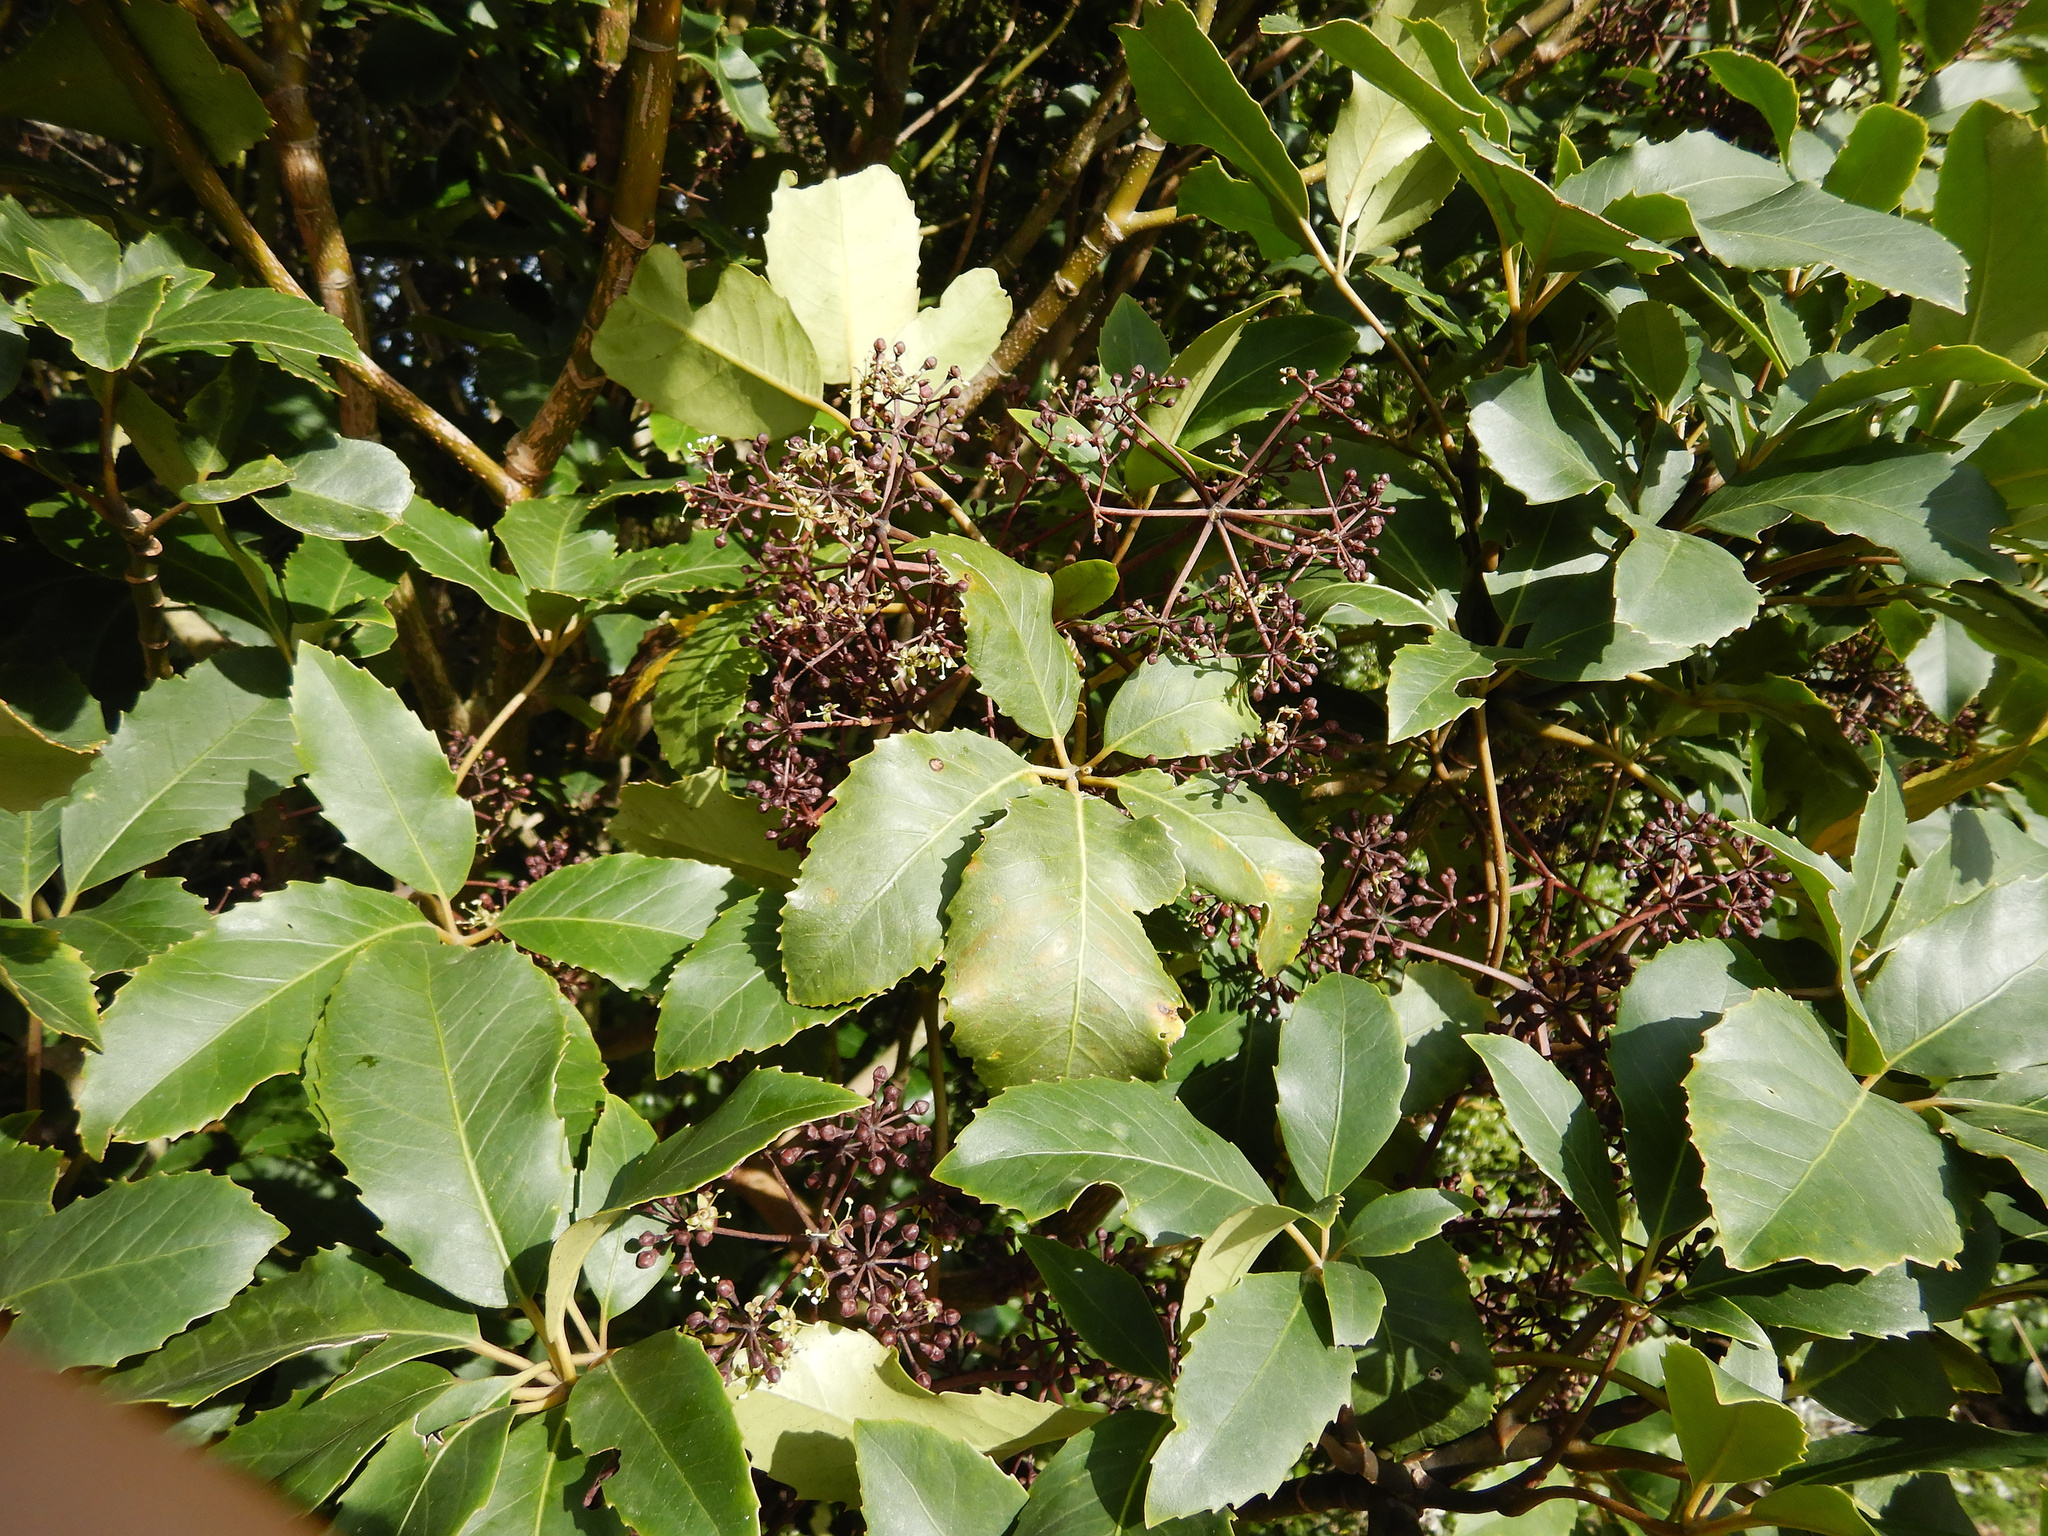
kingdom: Plantae
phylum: Tracheophyta
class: Magnoliopsida
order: Apiales
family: Araliaceae
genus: Neopanax
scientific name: Neopanax arboreus
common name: Five-fingers
